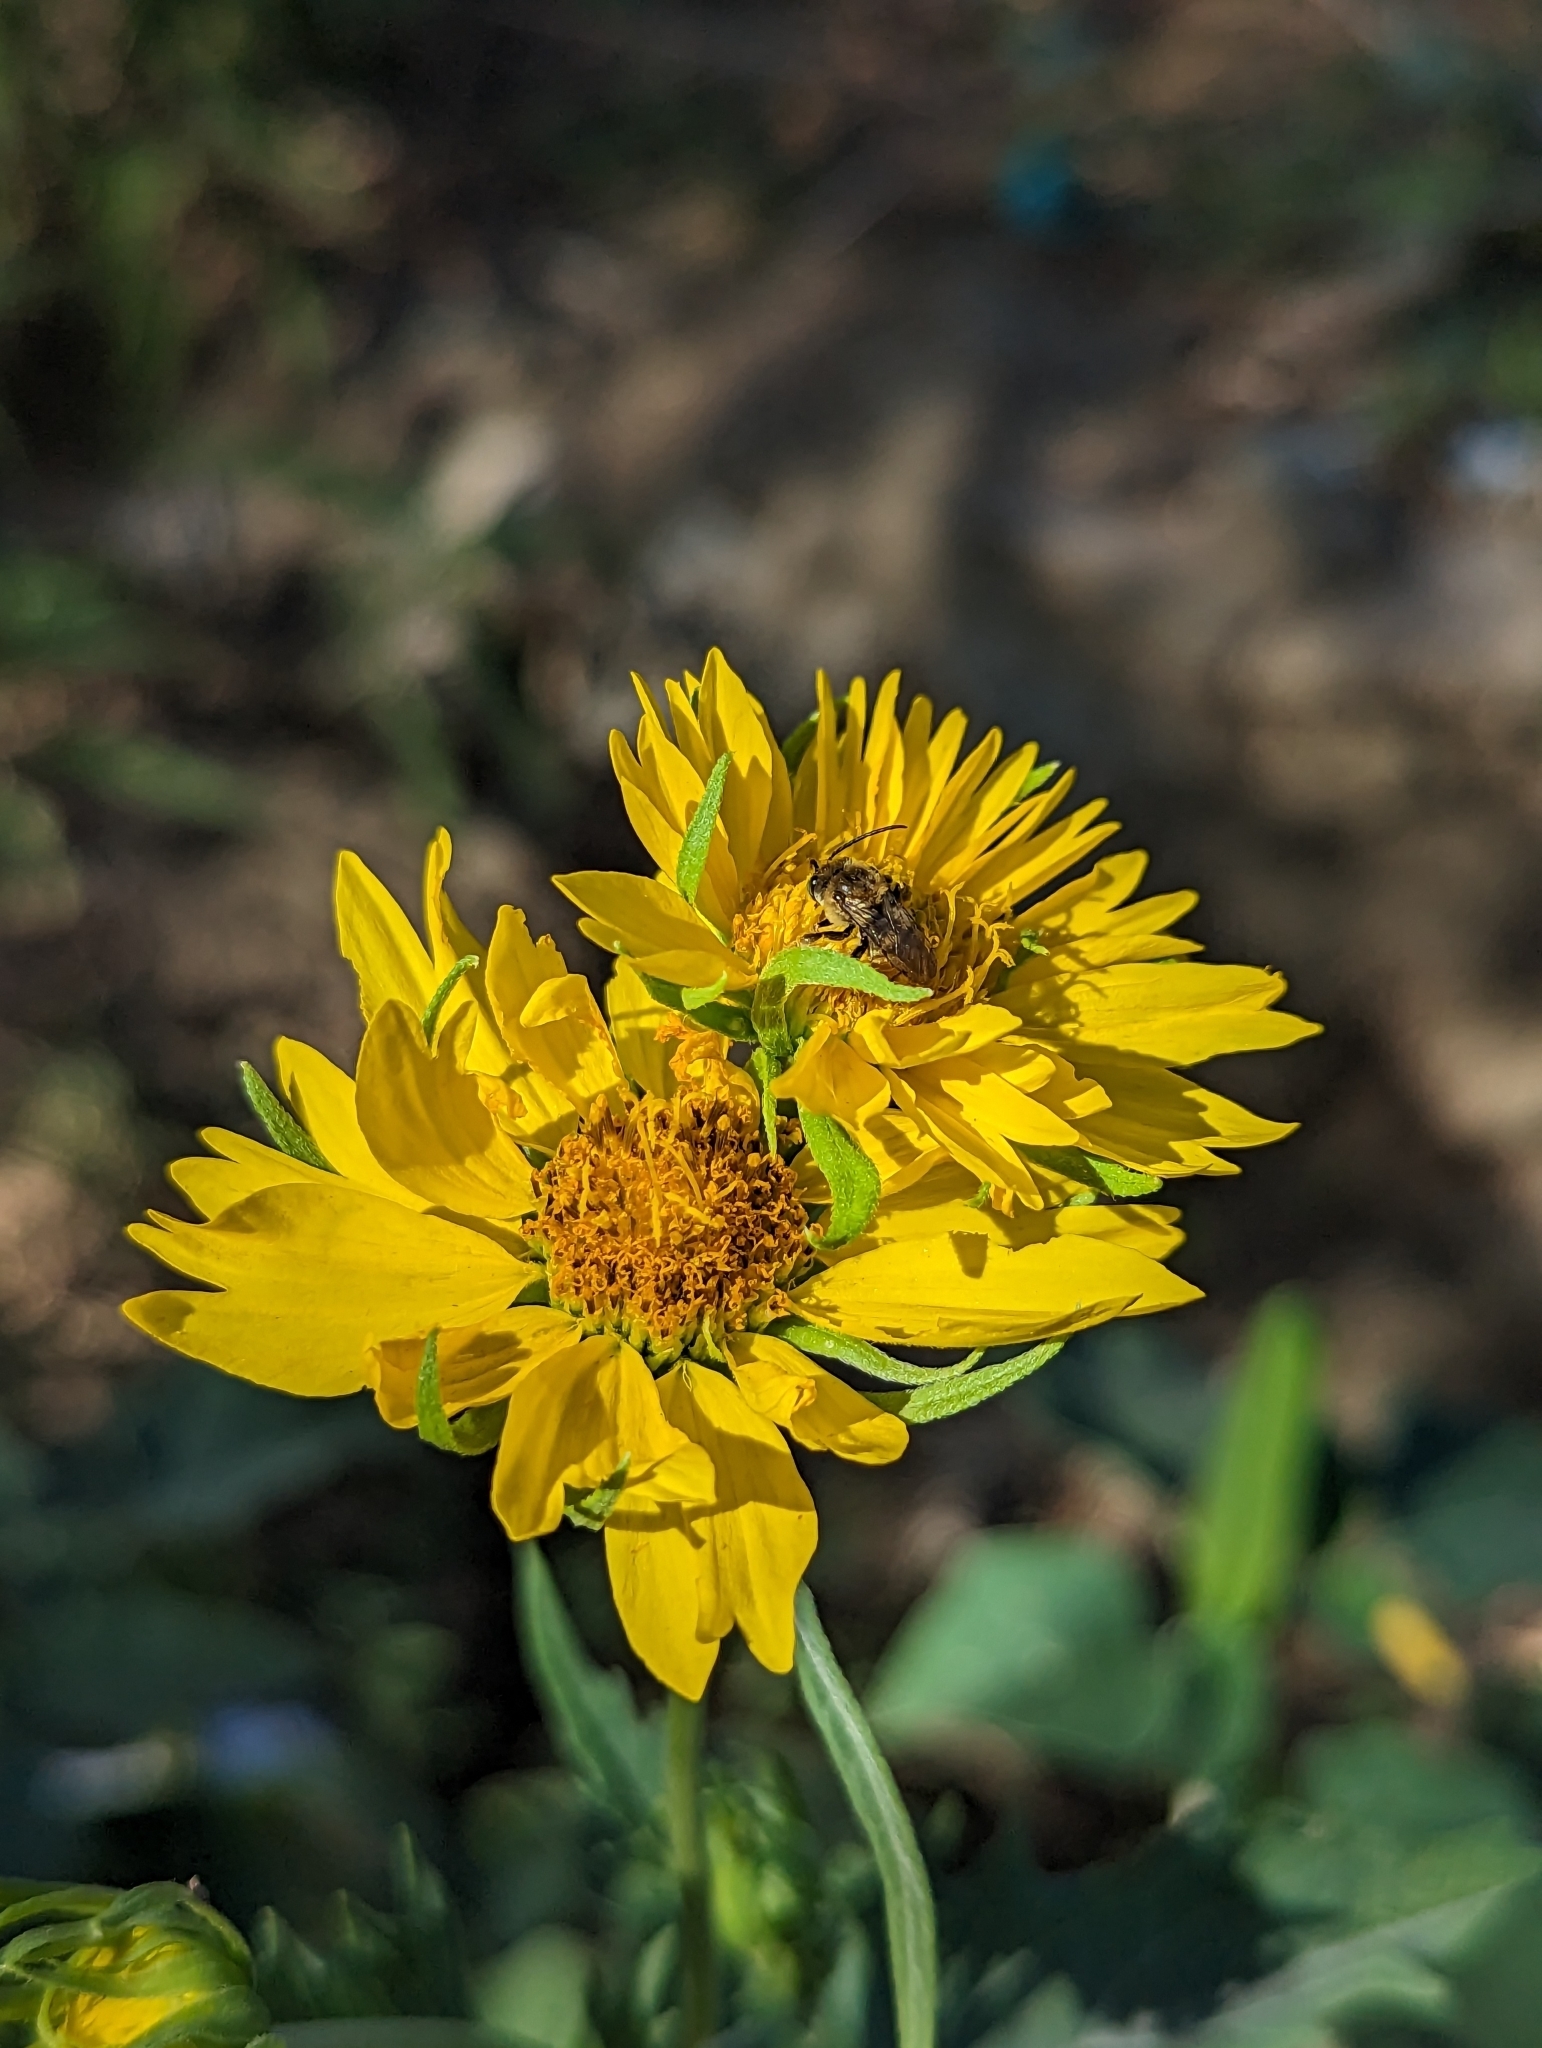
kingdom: Plantae
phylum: Tracheophyta
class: Magnoliopsida
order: Asterales
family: Asteraceae
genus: Verbesina
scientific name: Verbesina encelioides
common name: Golden crownbeard
